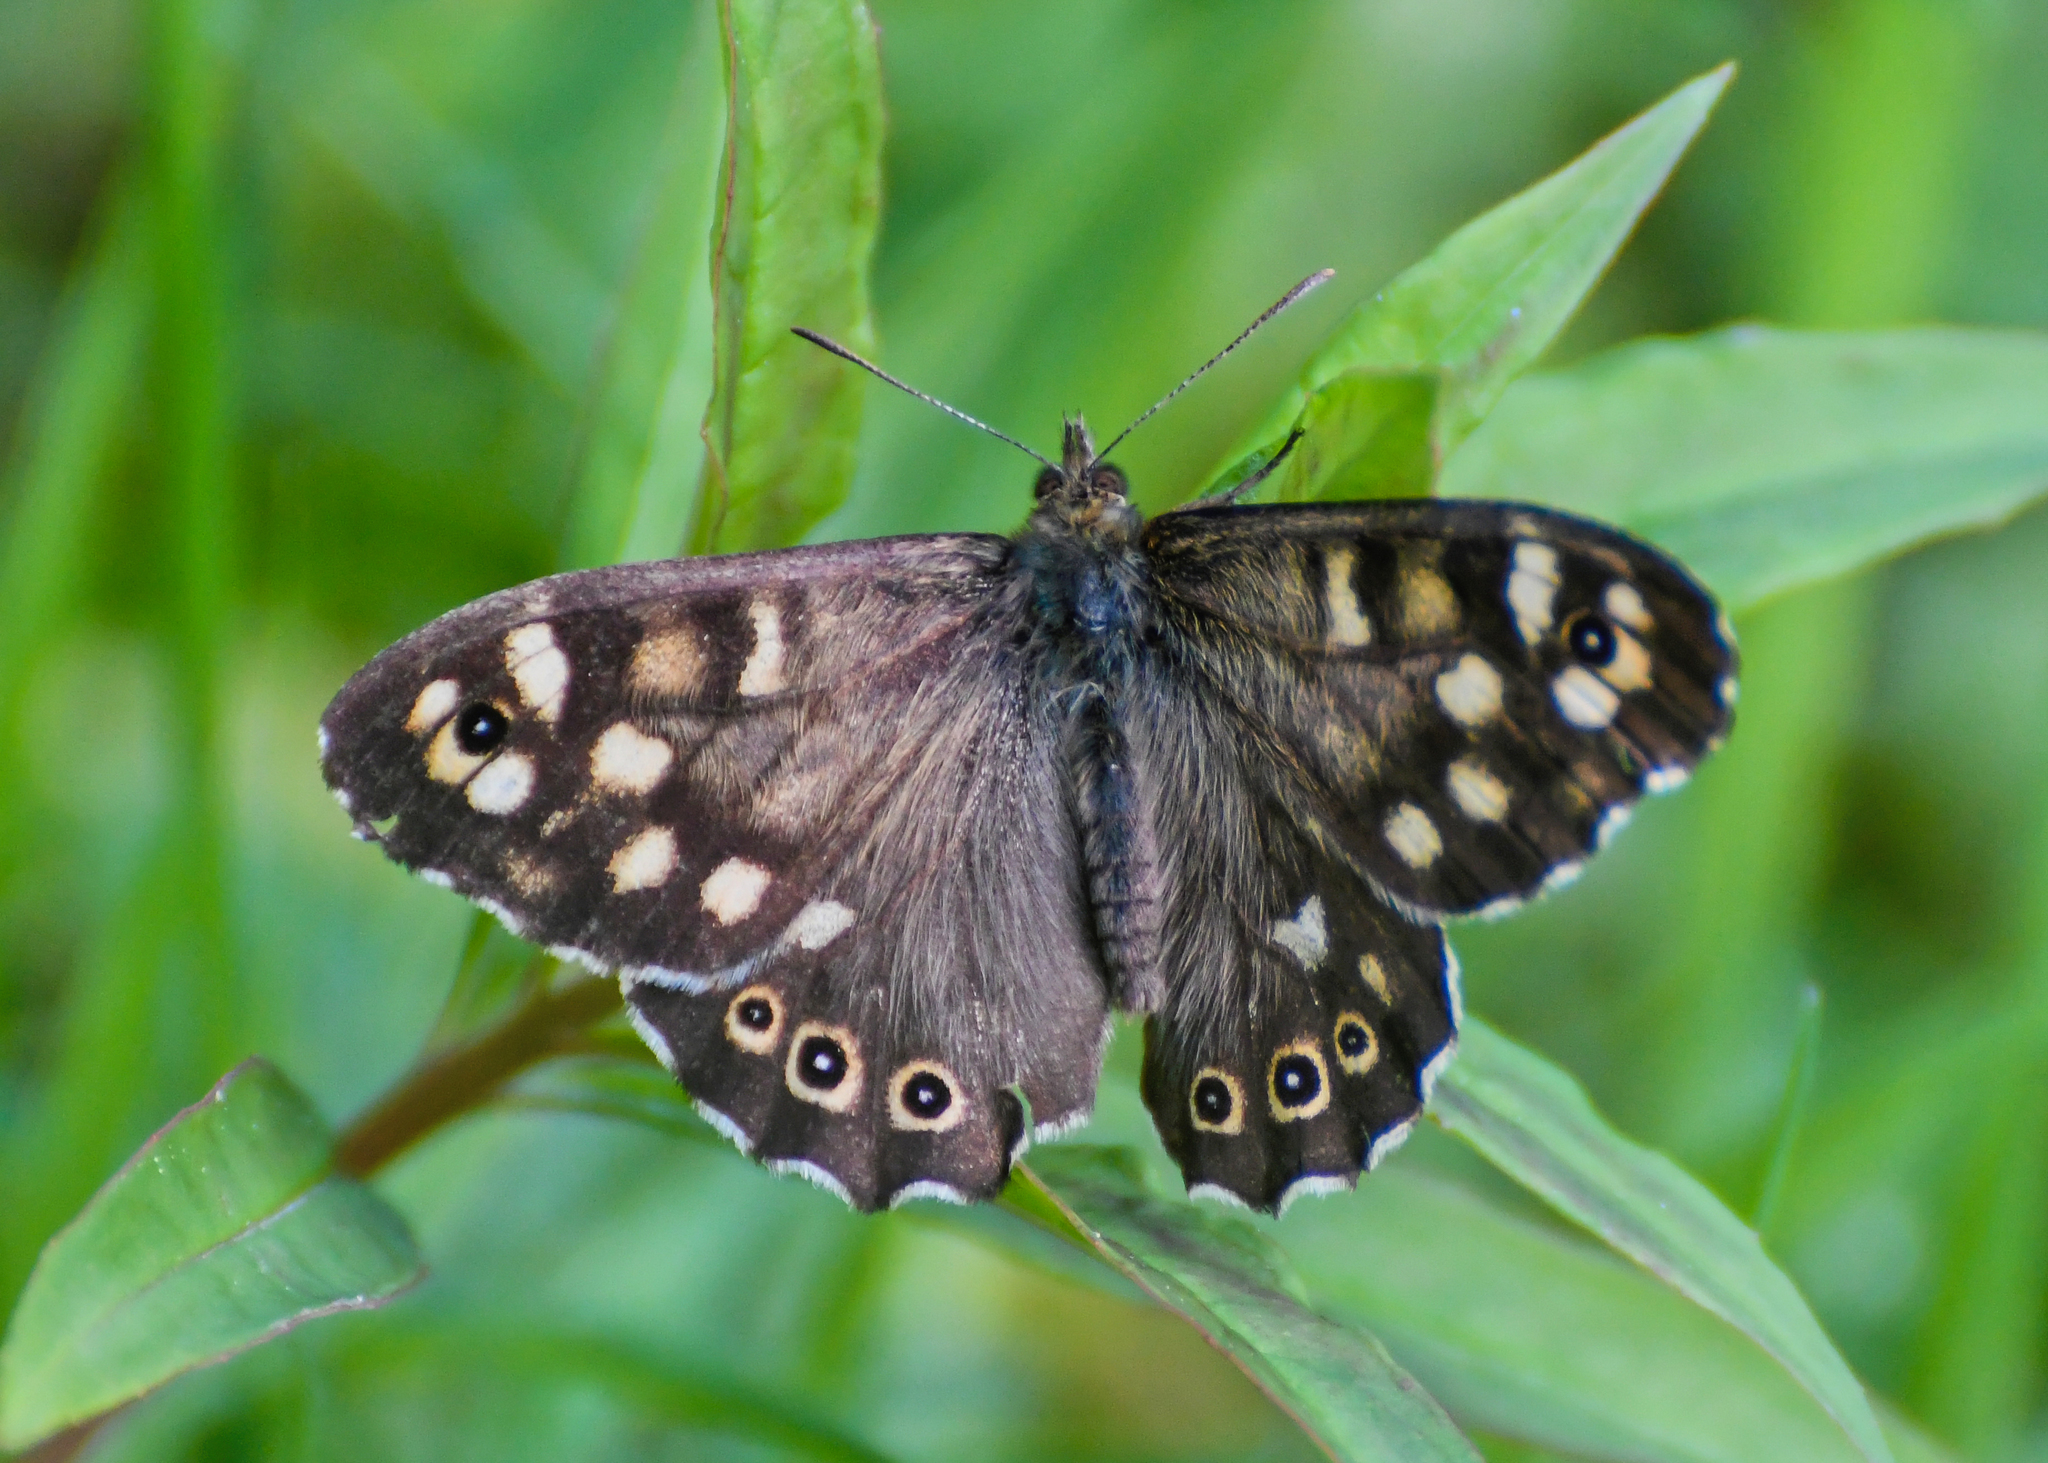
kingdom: Animalia
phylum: Arthropoda
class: Insecta
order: Lepidoptera
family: Nymphalidae
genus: Pararge
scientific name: Pararge aegeria
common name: Speckled wood
